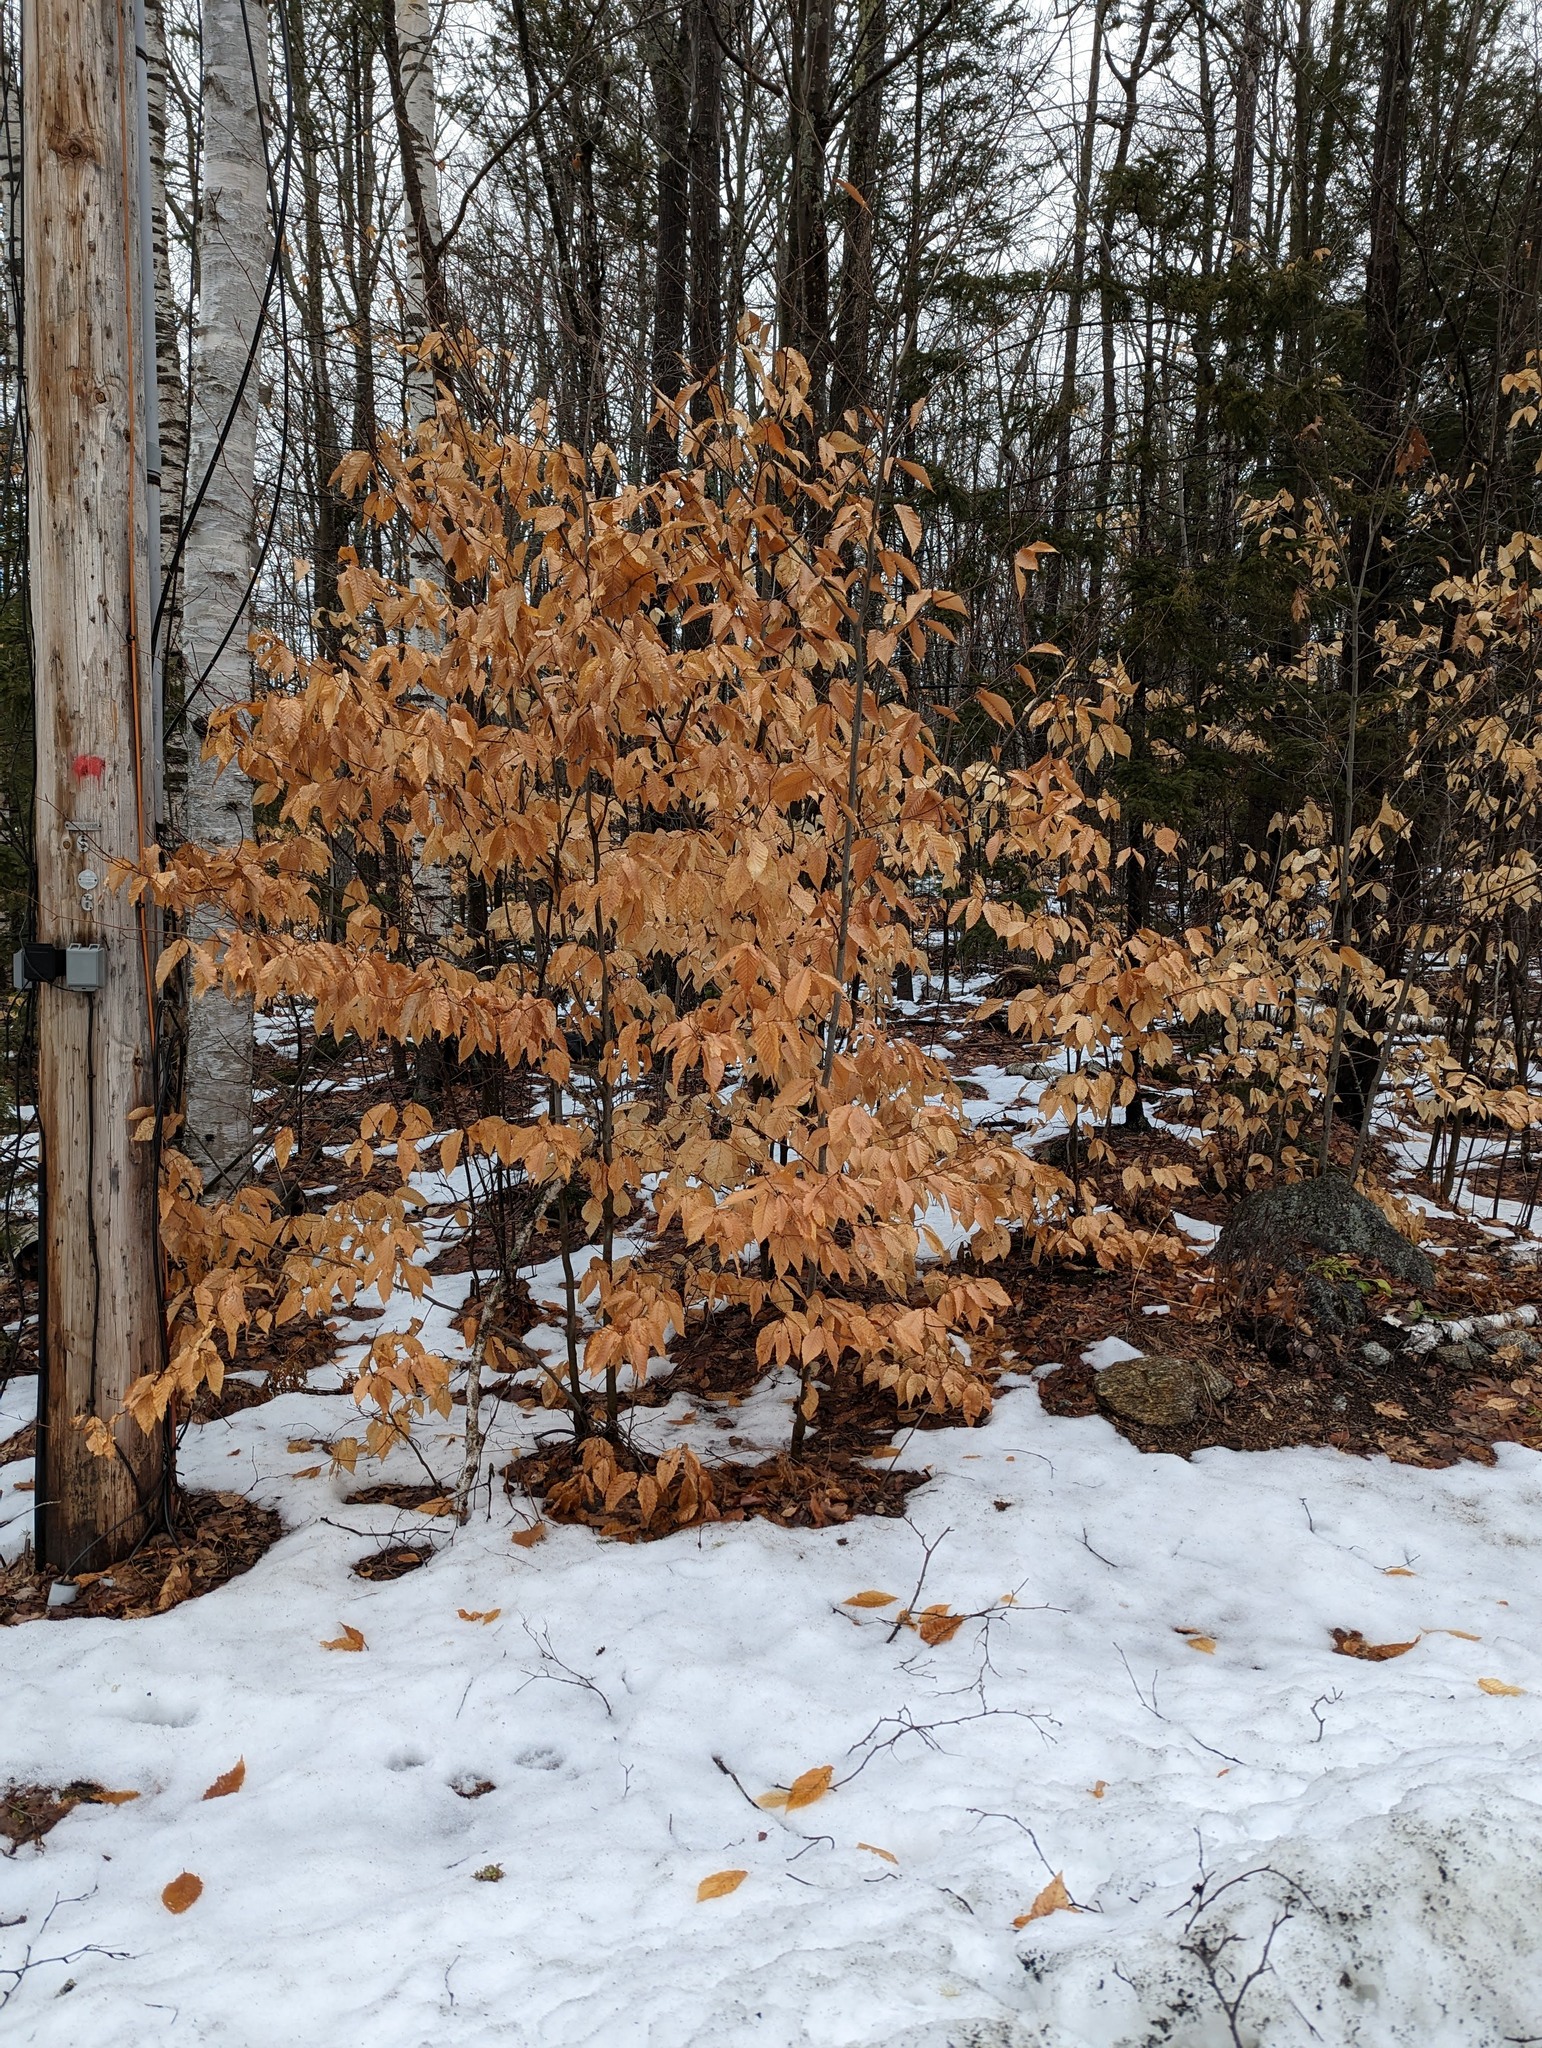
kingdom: Plantae
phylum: Tracheophyta
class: Magnoliopsida
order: Fagales
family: Fagaceae
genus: Fagus
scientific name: Fagus grandifolia
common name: American beech
